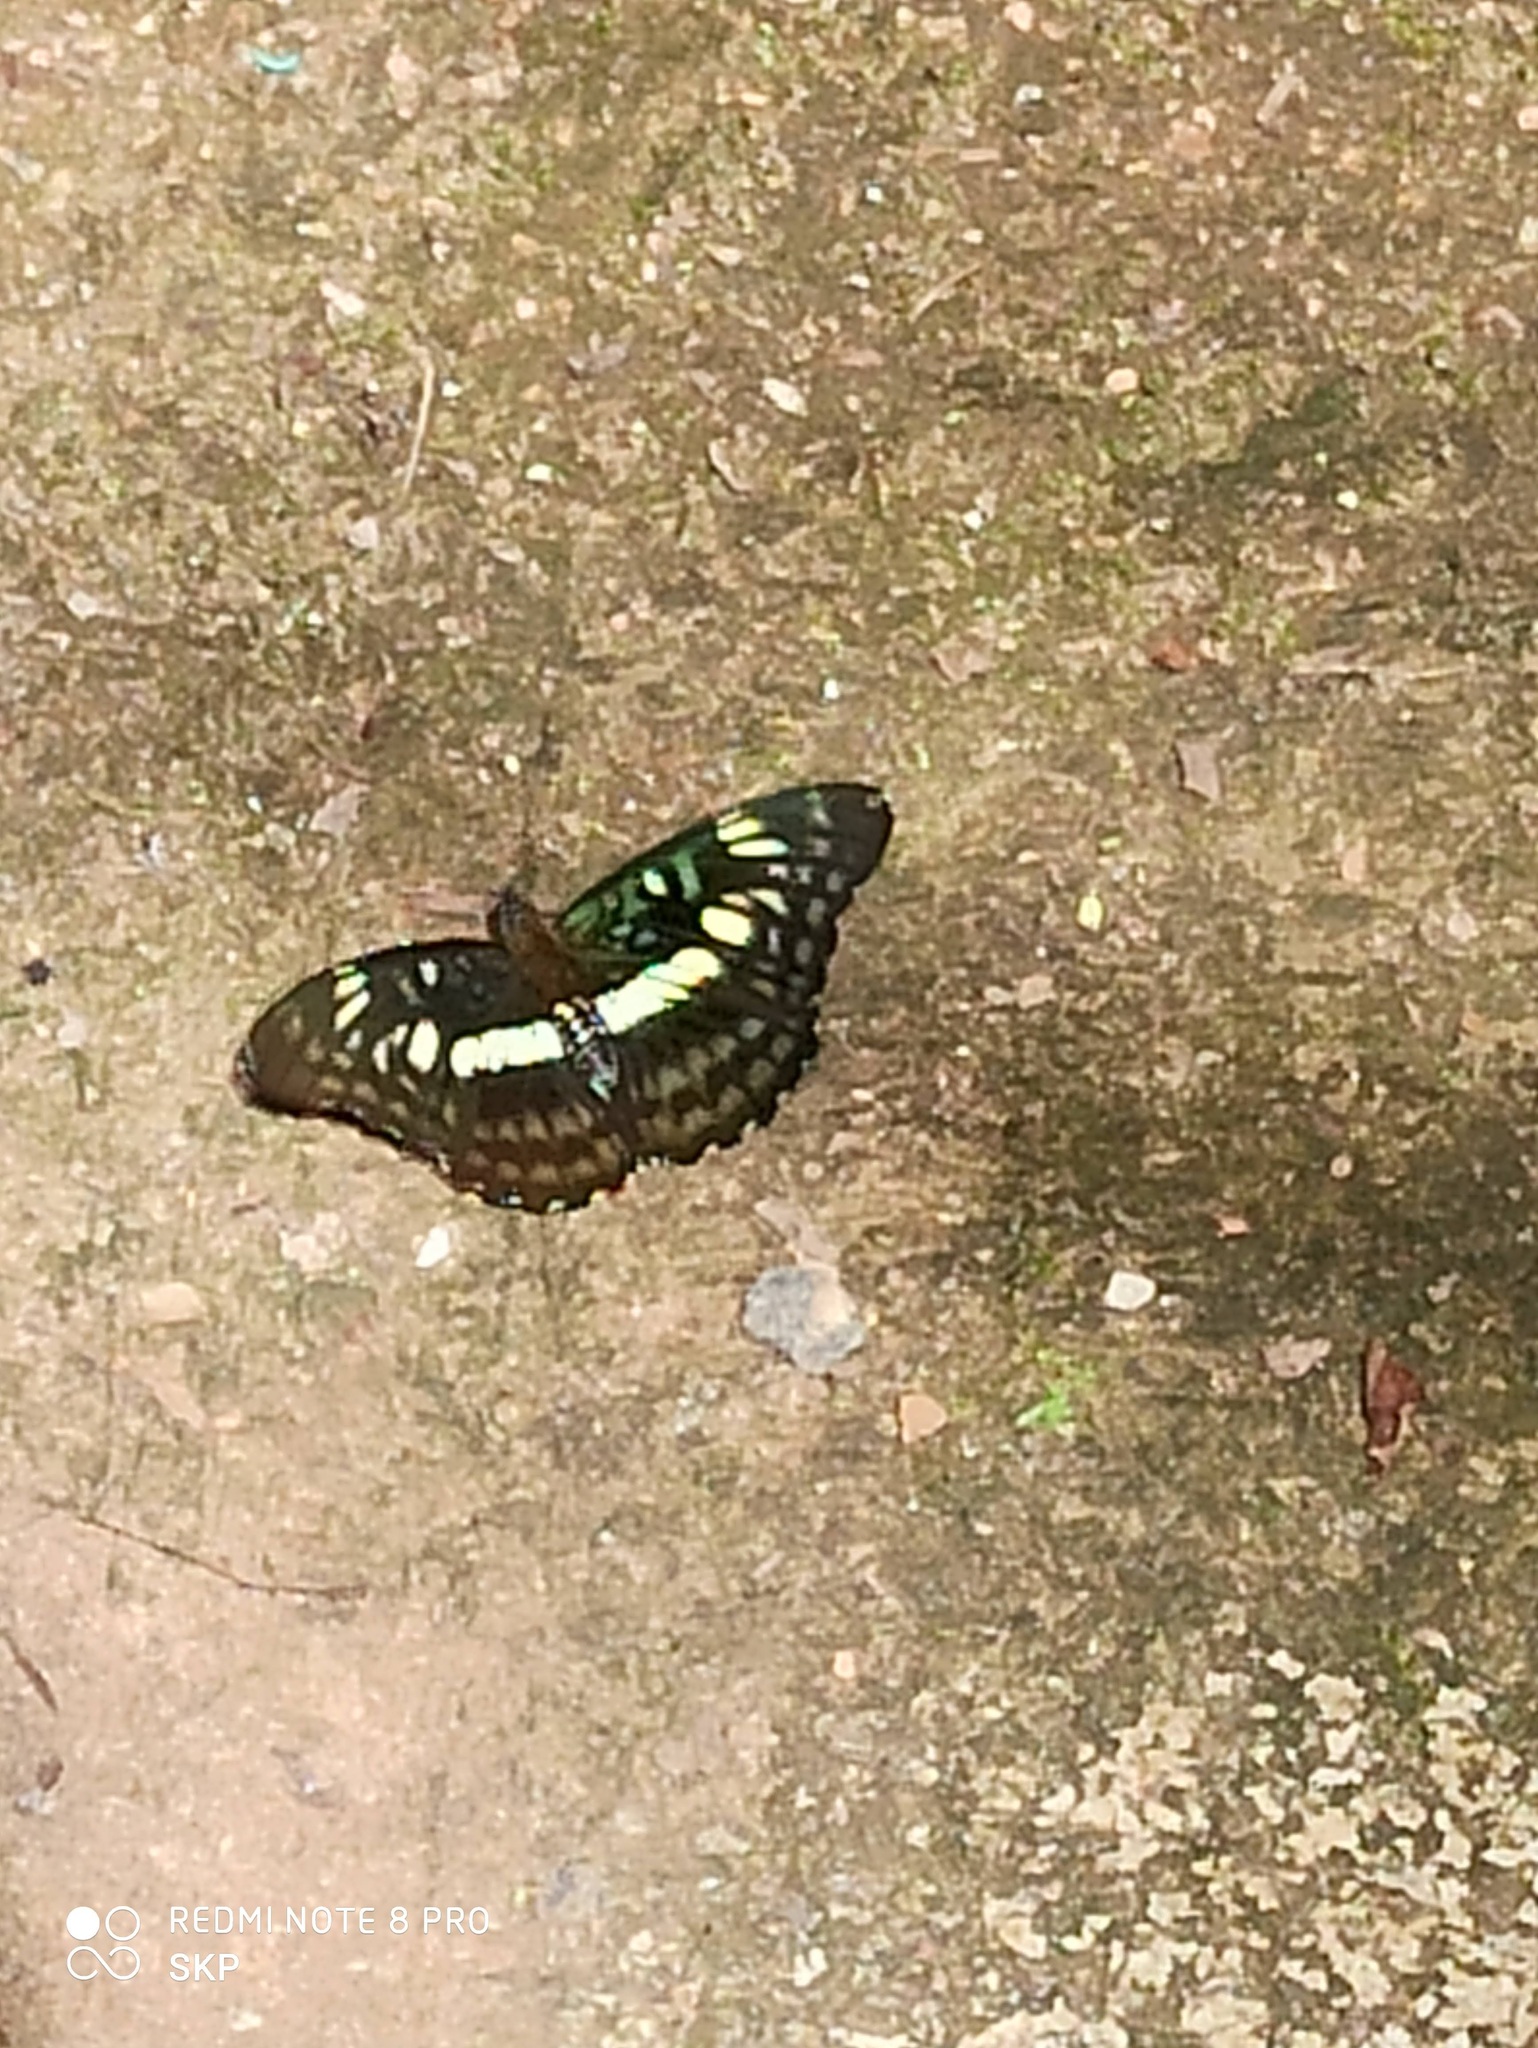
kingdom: Animalia
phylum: Arthropoda
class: Insecta
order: Lepidoptera
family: Nymphalidae
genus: Parathyma
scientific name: Parathyma ranga
